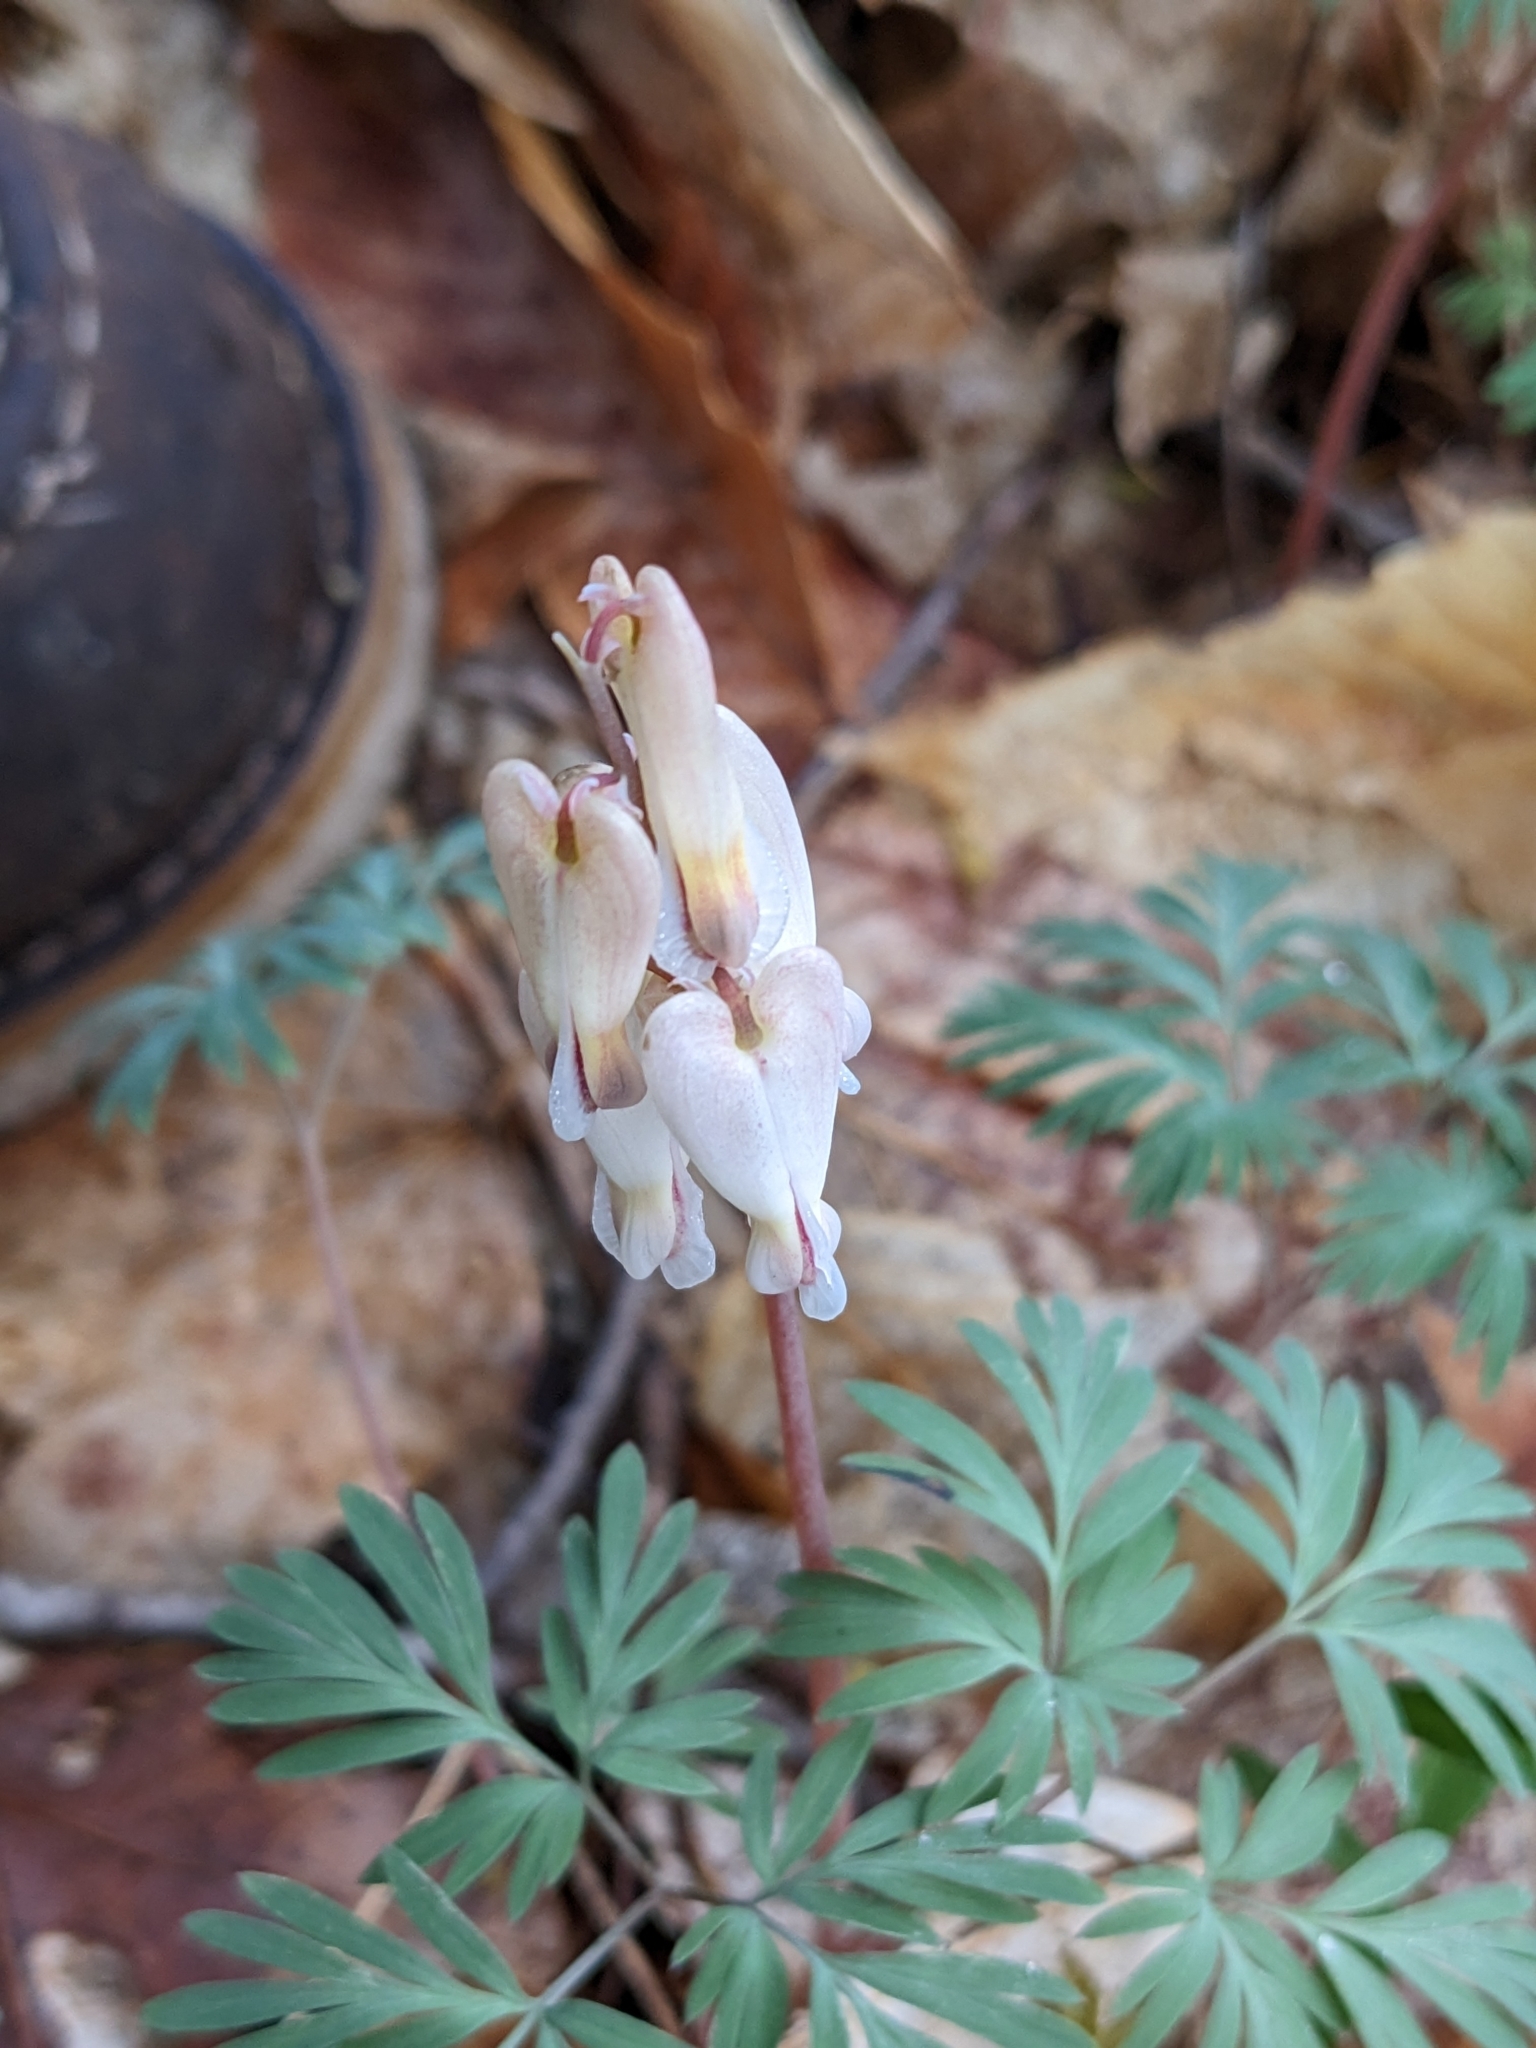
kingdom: Plantae
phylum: Tracheophyta
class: Magnoliopsida
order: Ranunculales
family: Papaveraceae
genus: Dicentra
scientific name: Dicentra canadensis
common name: Squirrel-corn
